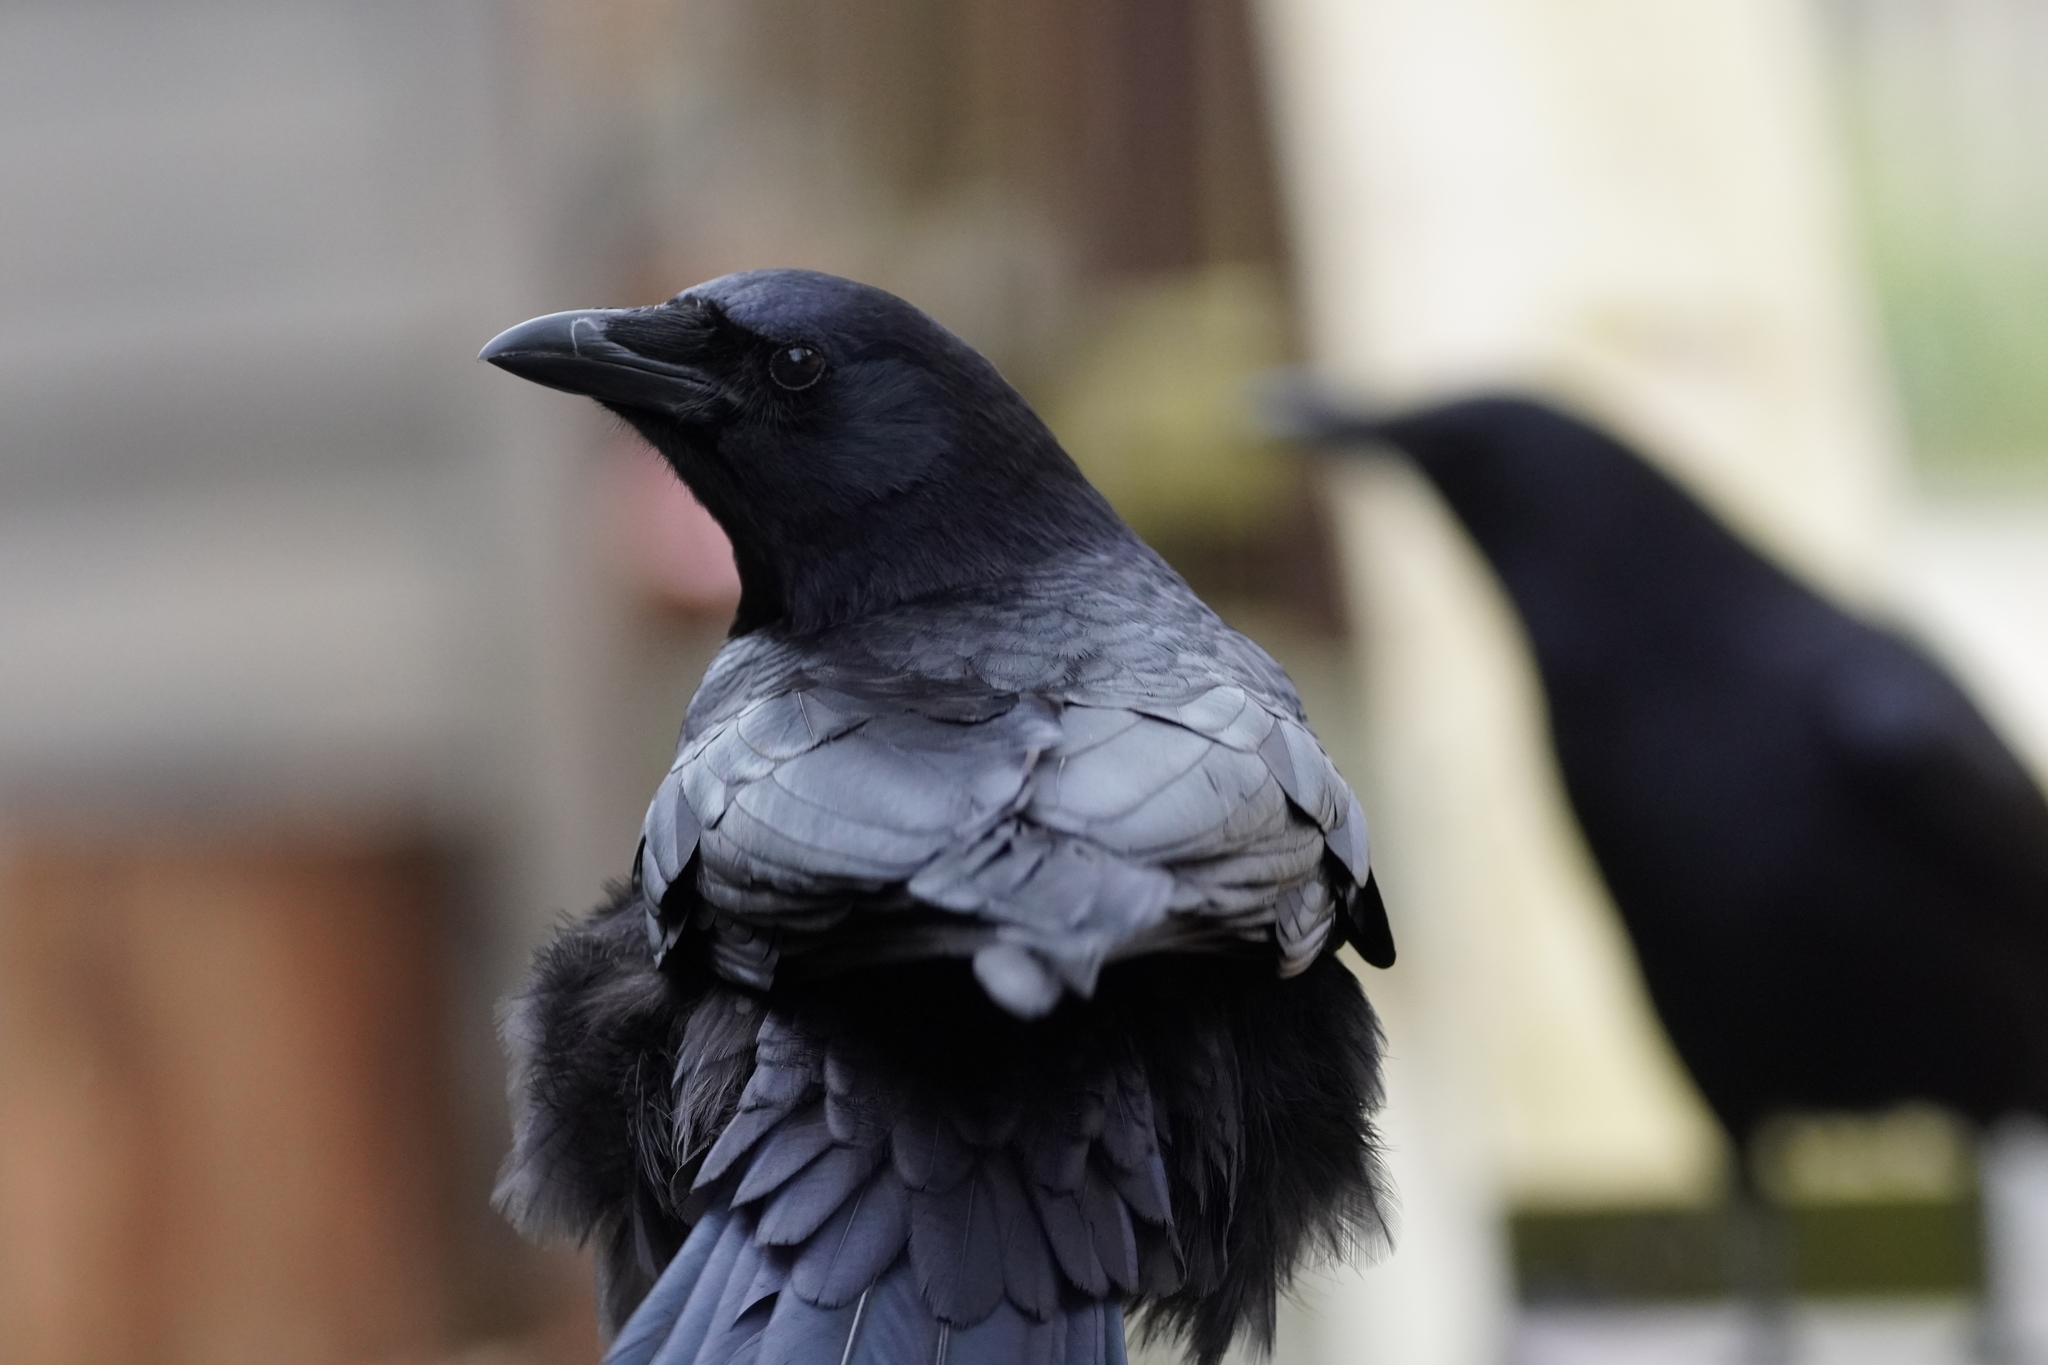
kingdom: Animalia
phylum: Chordata
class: Aves
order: Passeriformes
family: Corvidae
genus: Corvus
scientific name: Corvus brachyrhynchos
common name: American crow
